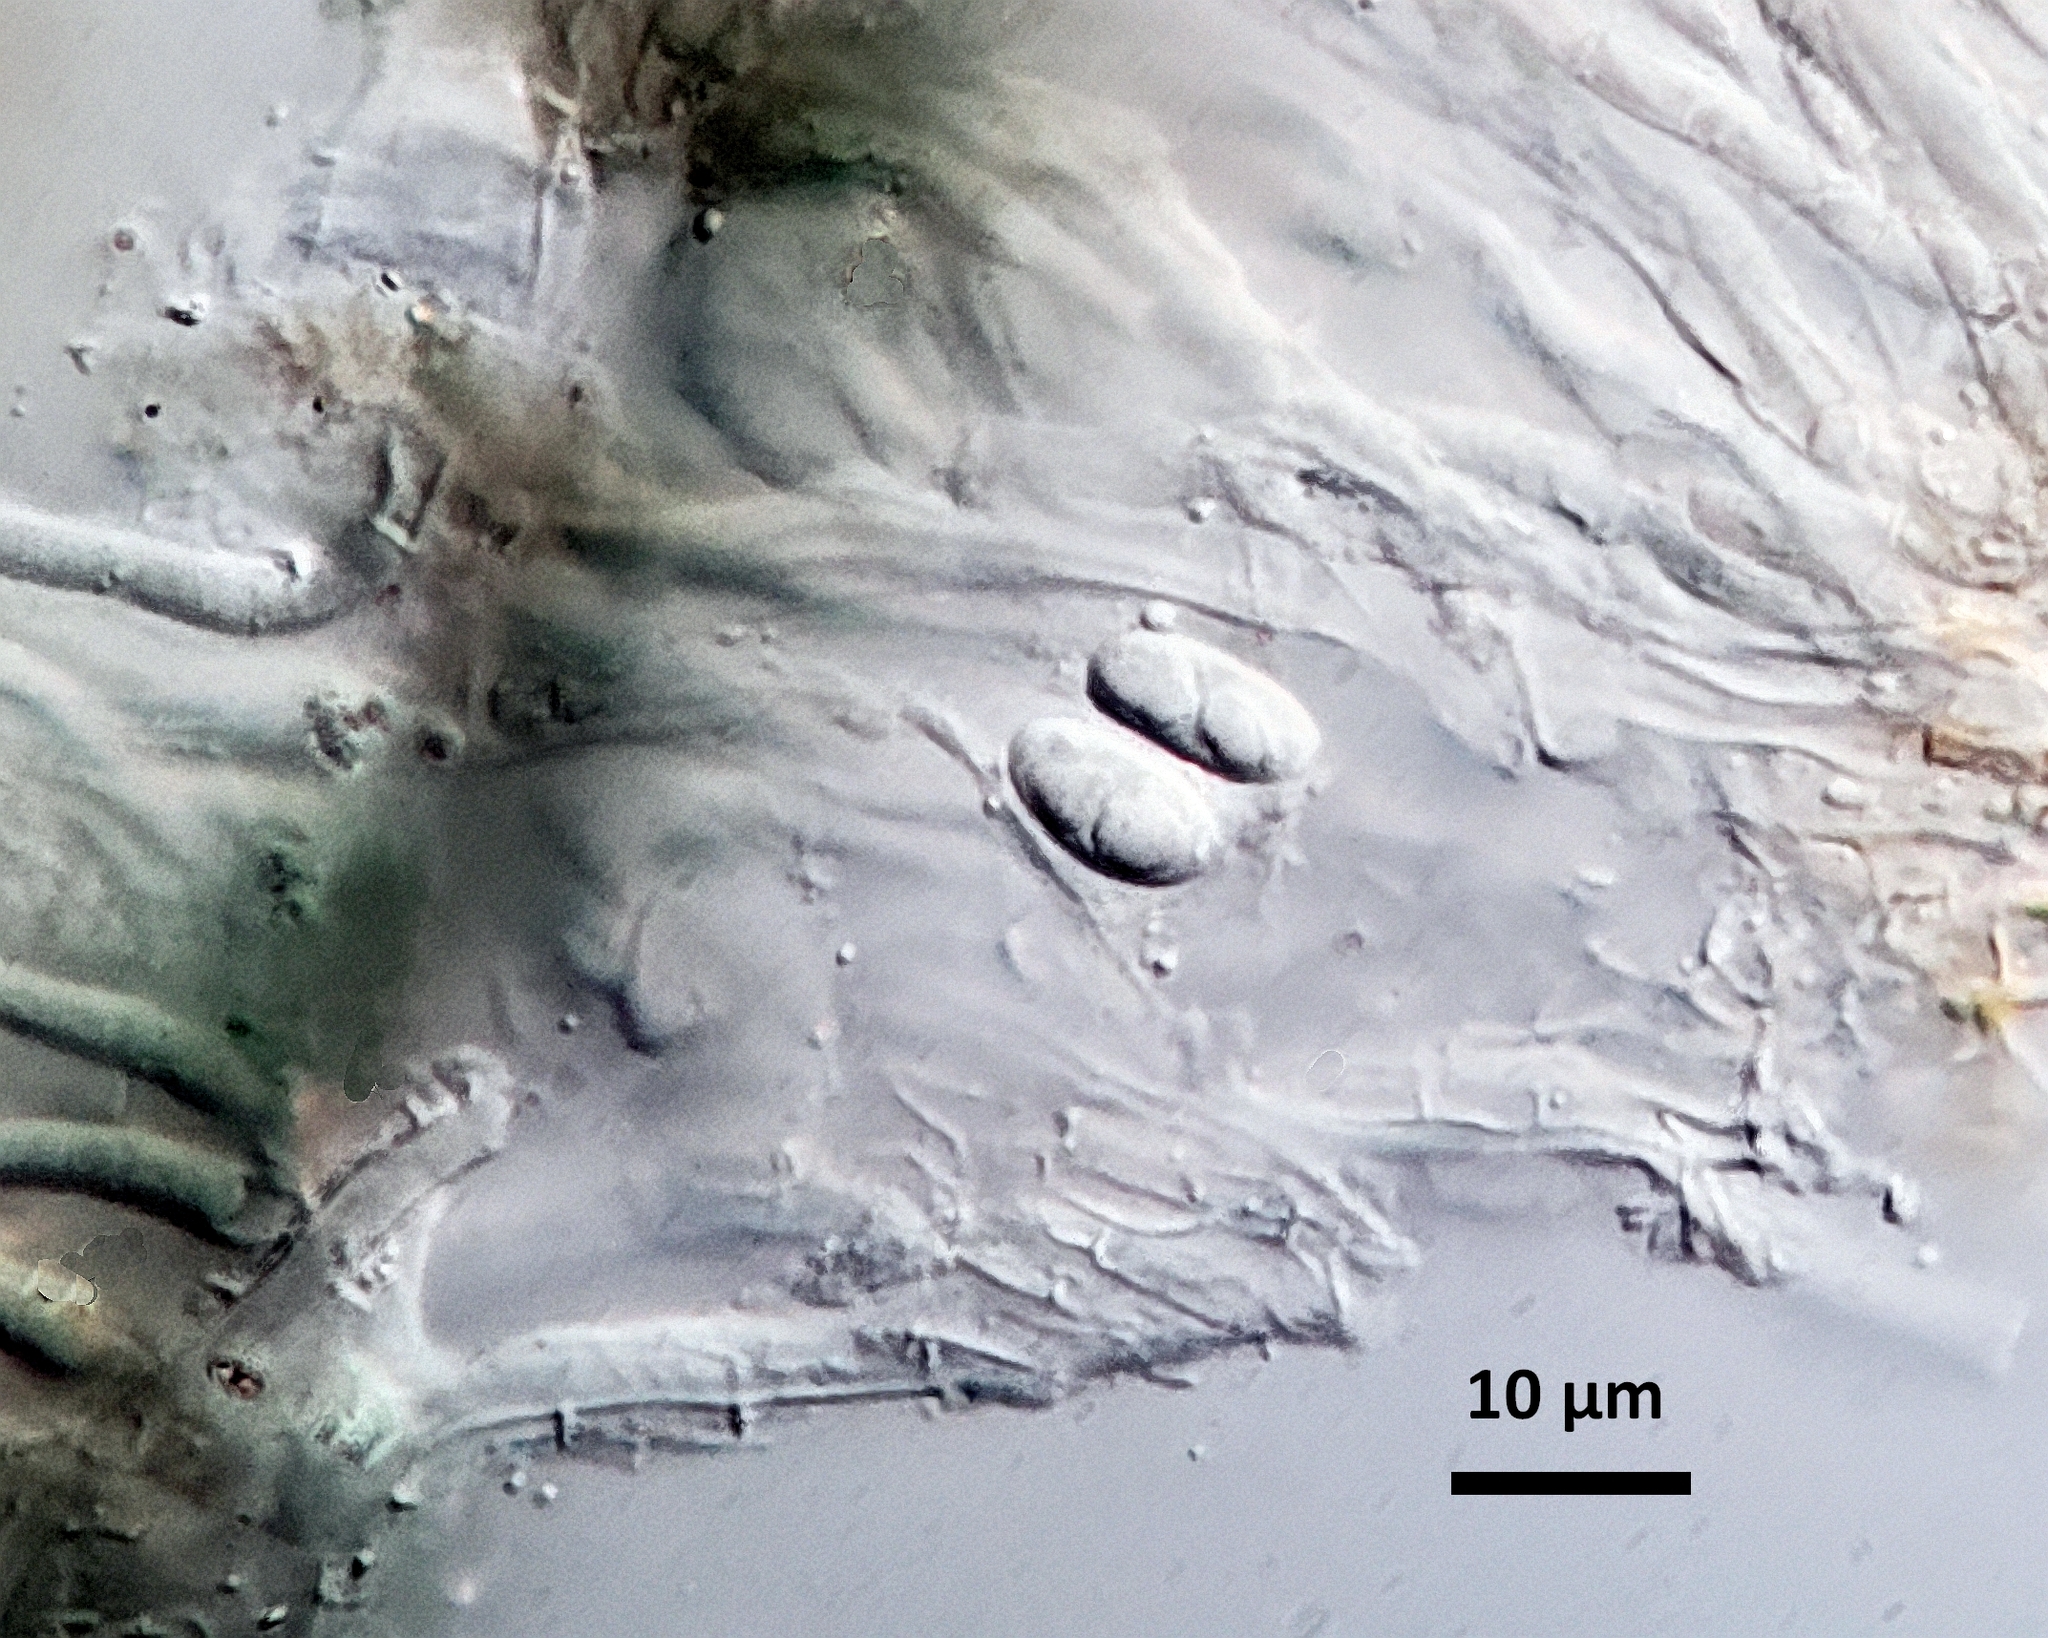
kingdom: Fungi
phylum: Ascomycota
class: Lecanoromycetes
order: Peltigerales
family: Placynthiaceae
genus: Placynthium
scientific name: Placynthium nigrum
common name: Blackthread lichen
